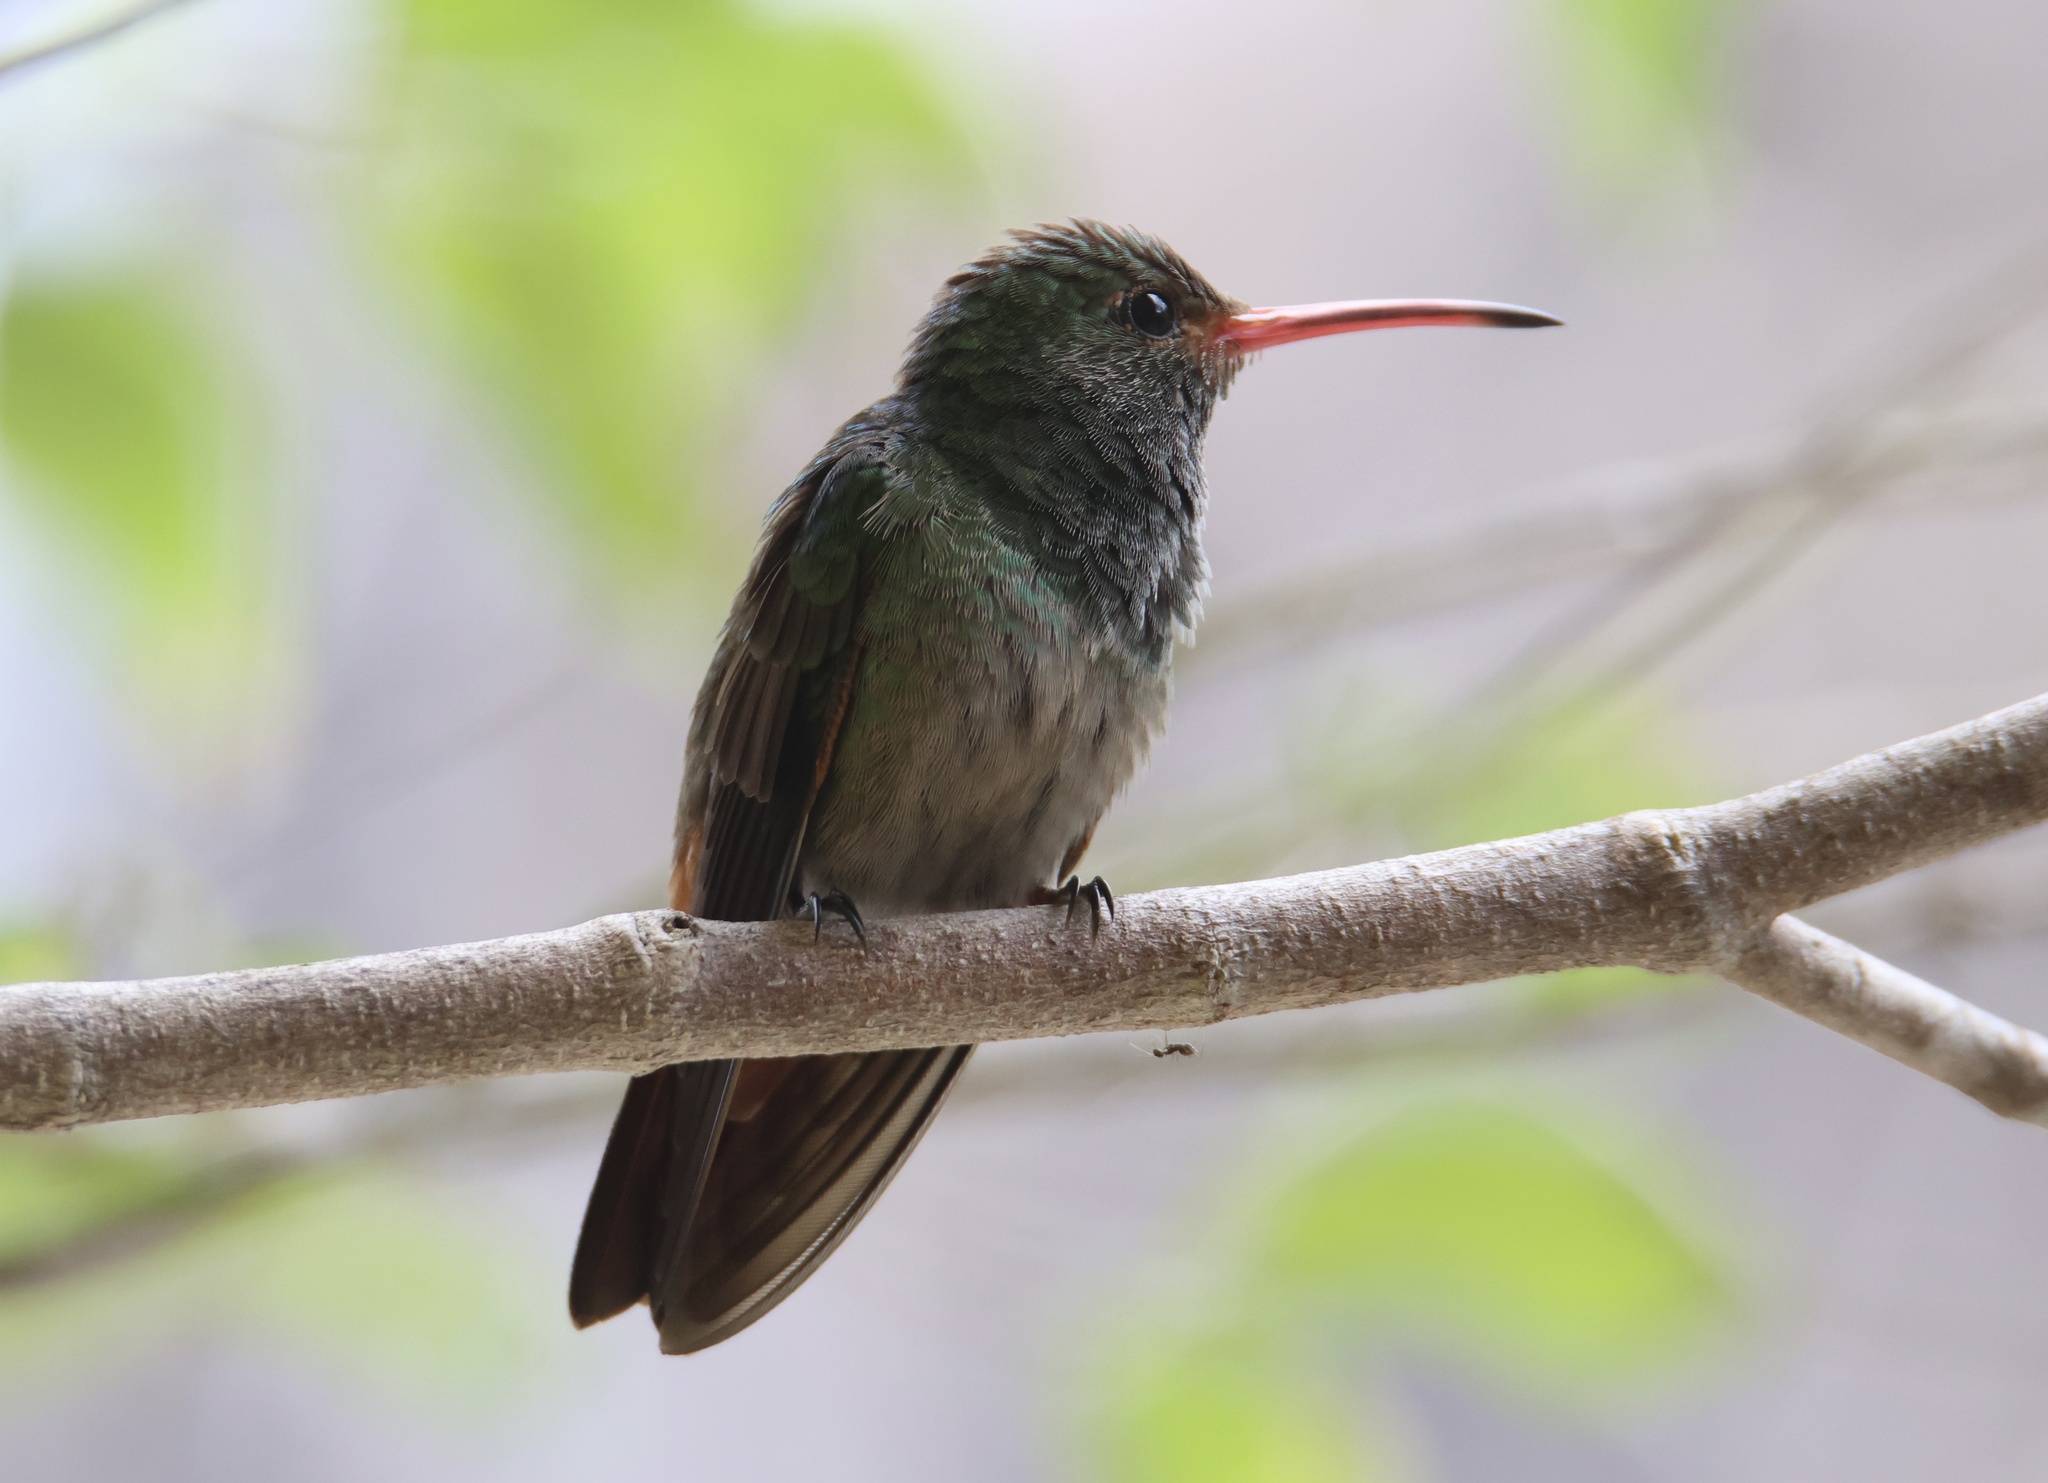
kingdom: Animalia
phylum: Chordata
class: Aves
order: Apodiformes
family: Trochilidae
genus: Amazilia
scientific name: Amazilia tzacatl
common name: Rufous-tailed hummingbird
